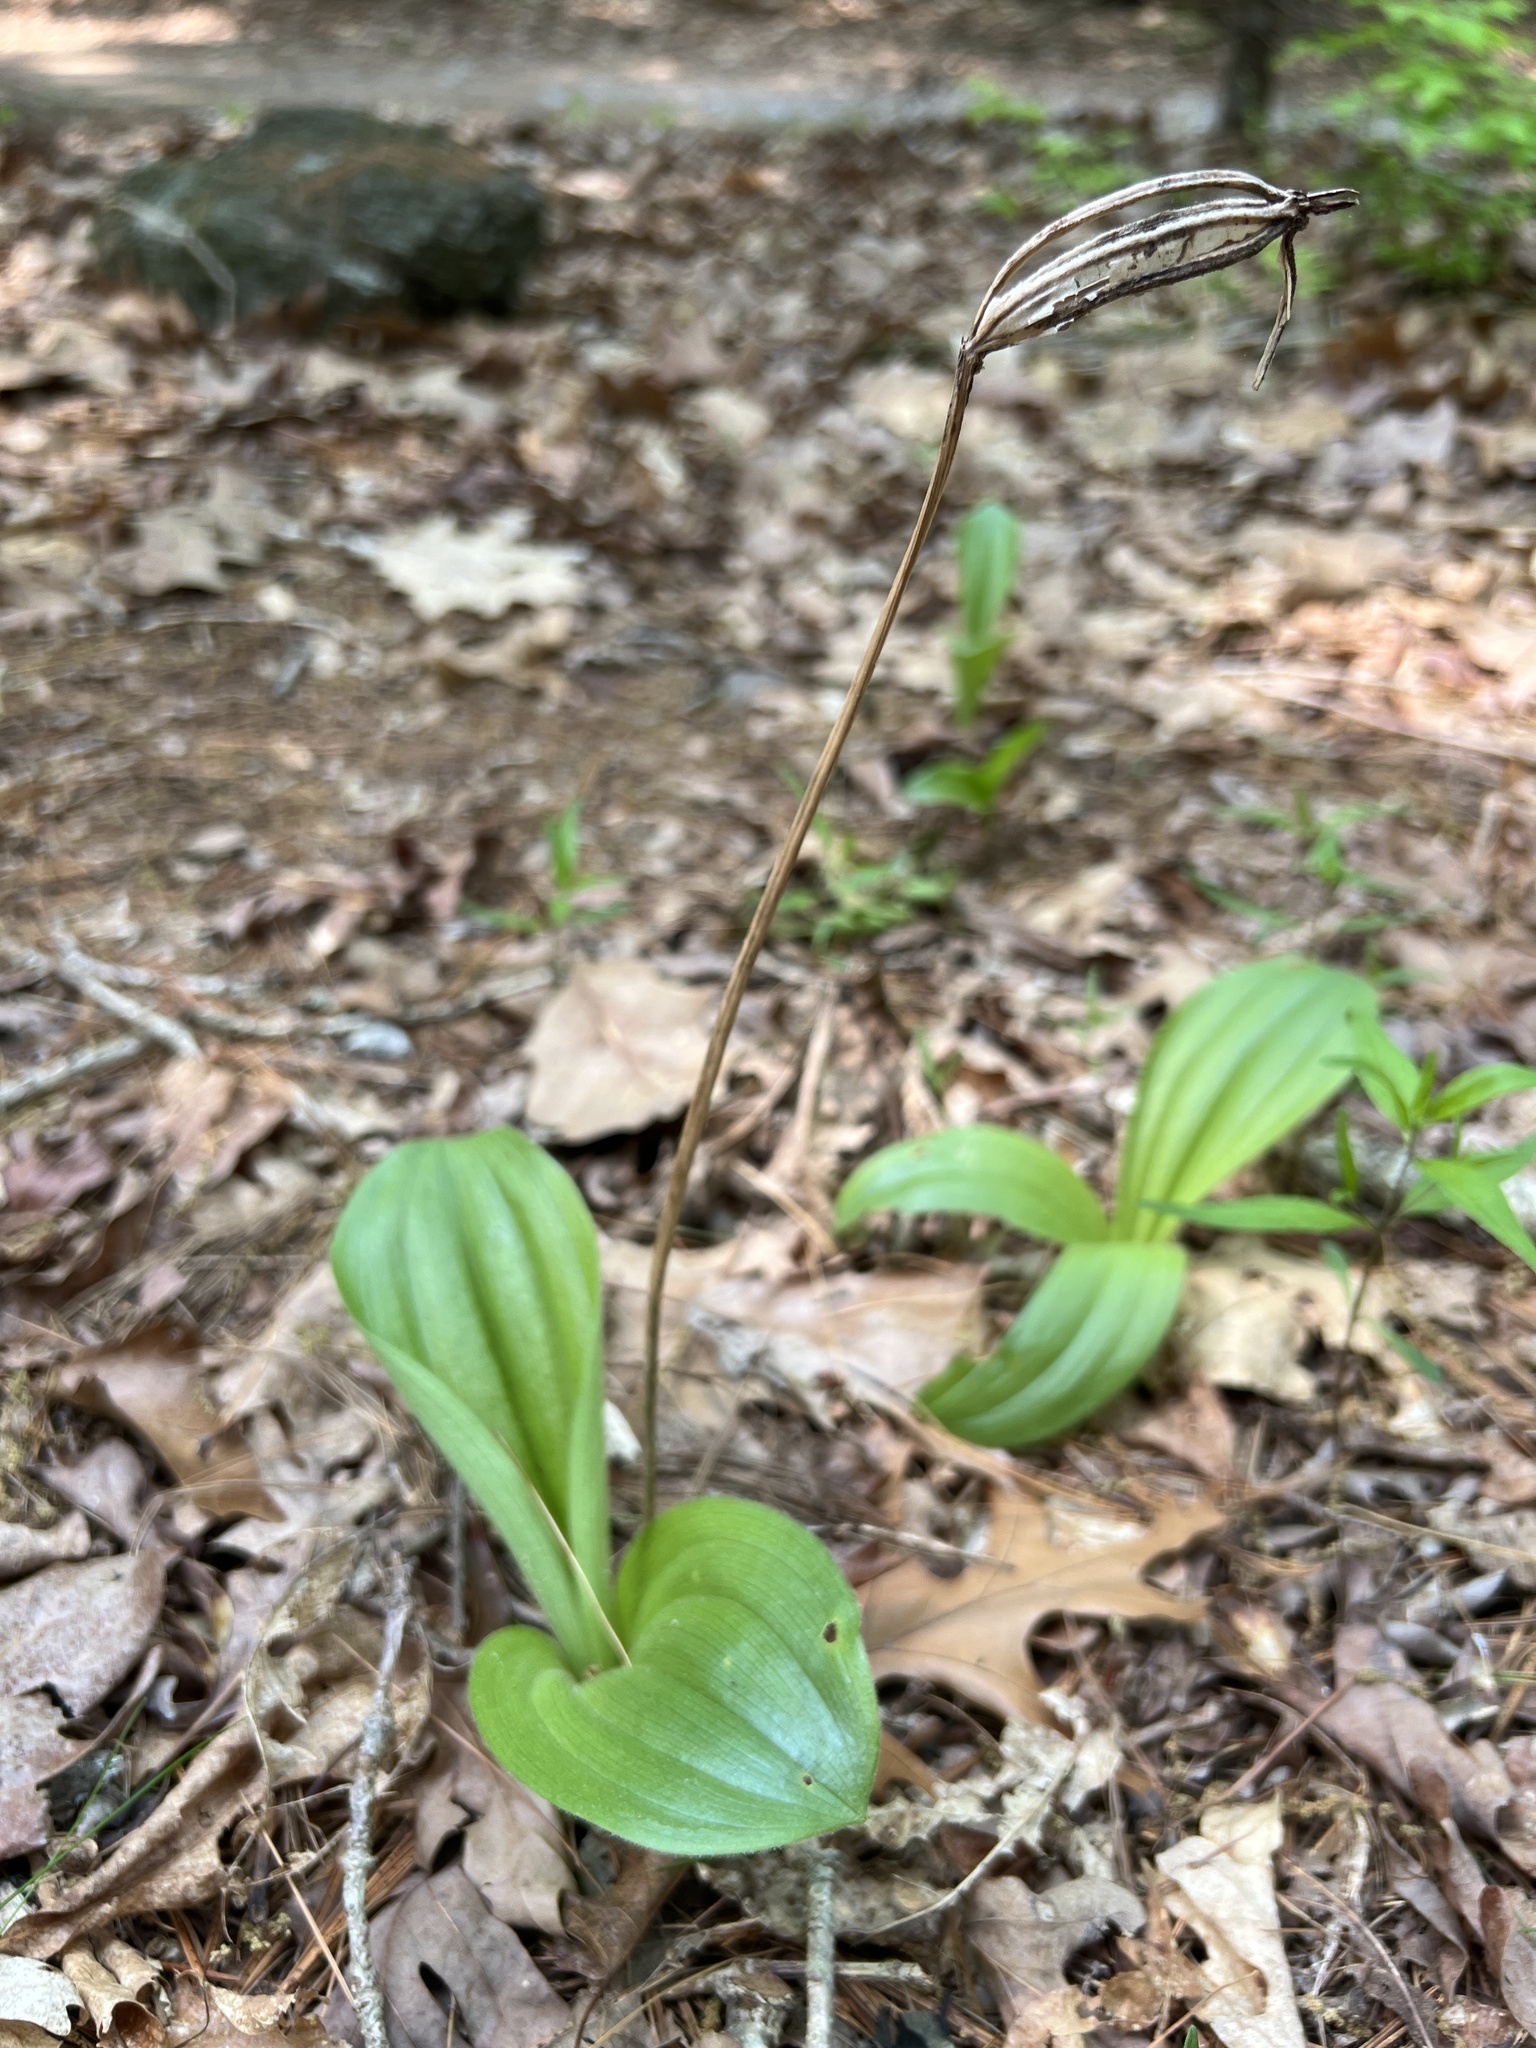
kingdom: Plantae
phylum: Tracheophyta
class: Liliopsida
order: Asparagales
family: Orchidaceae
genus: Cypripedium
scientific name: Cypripedium acaule
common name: Pink lady's-slipper
